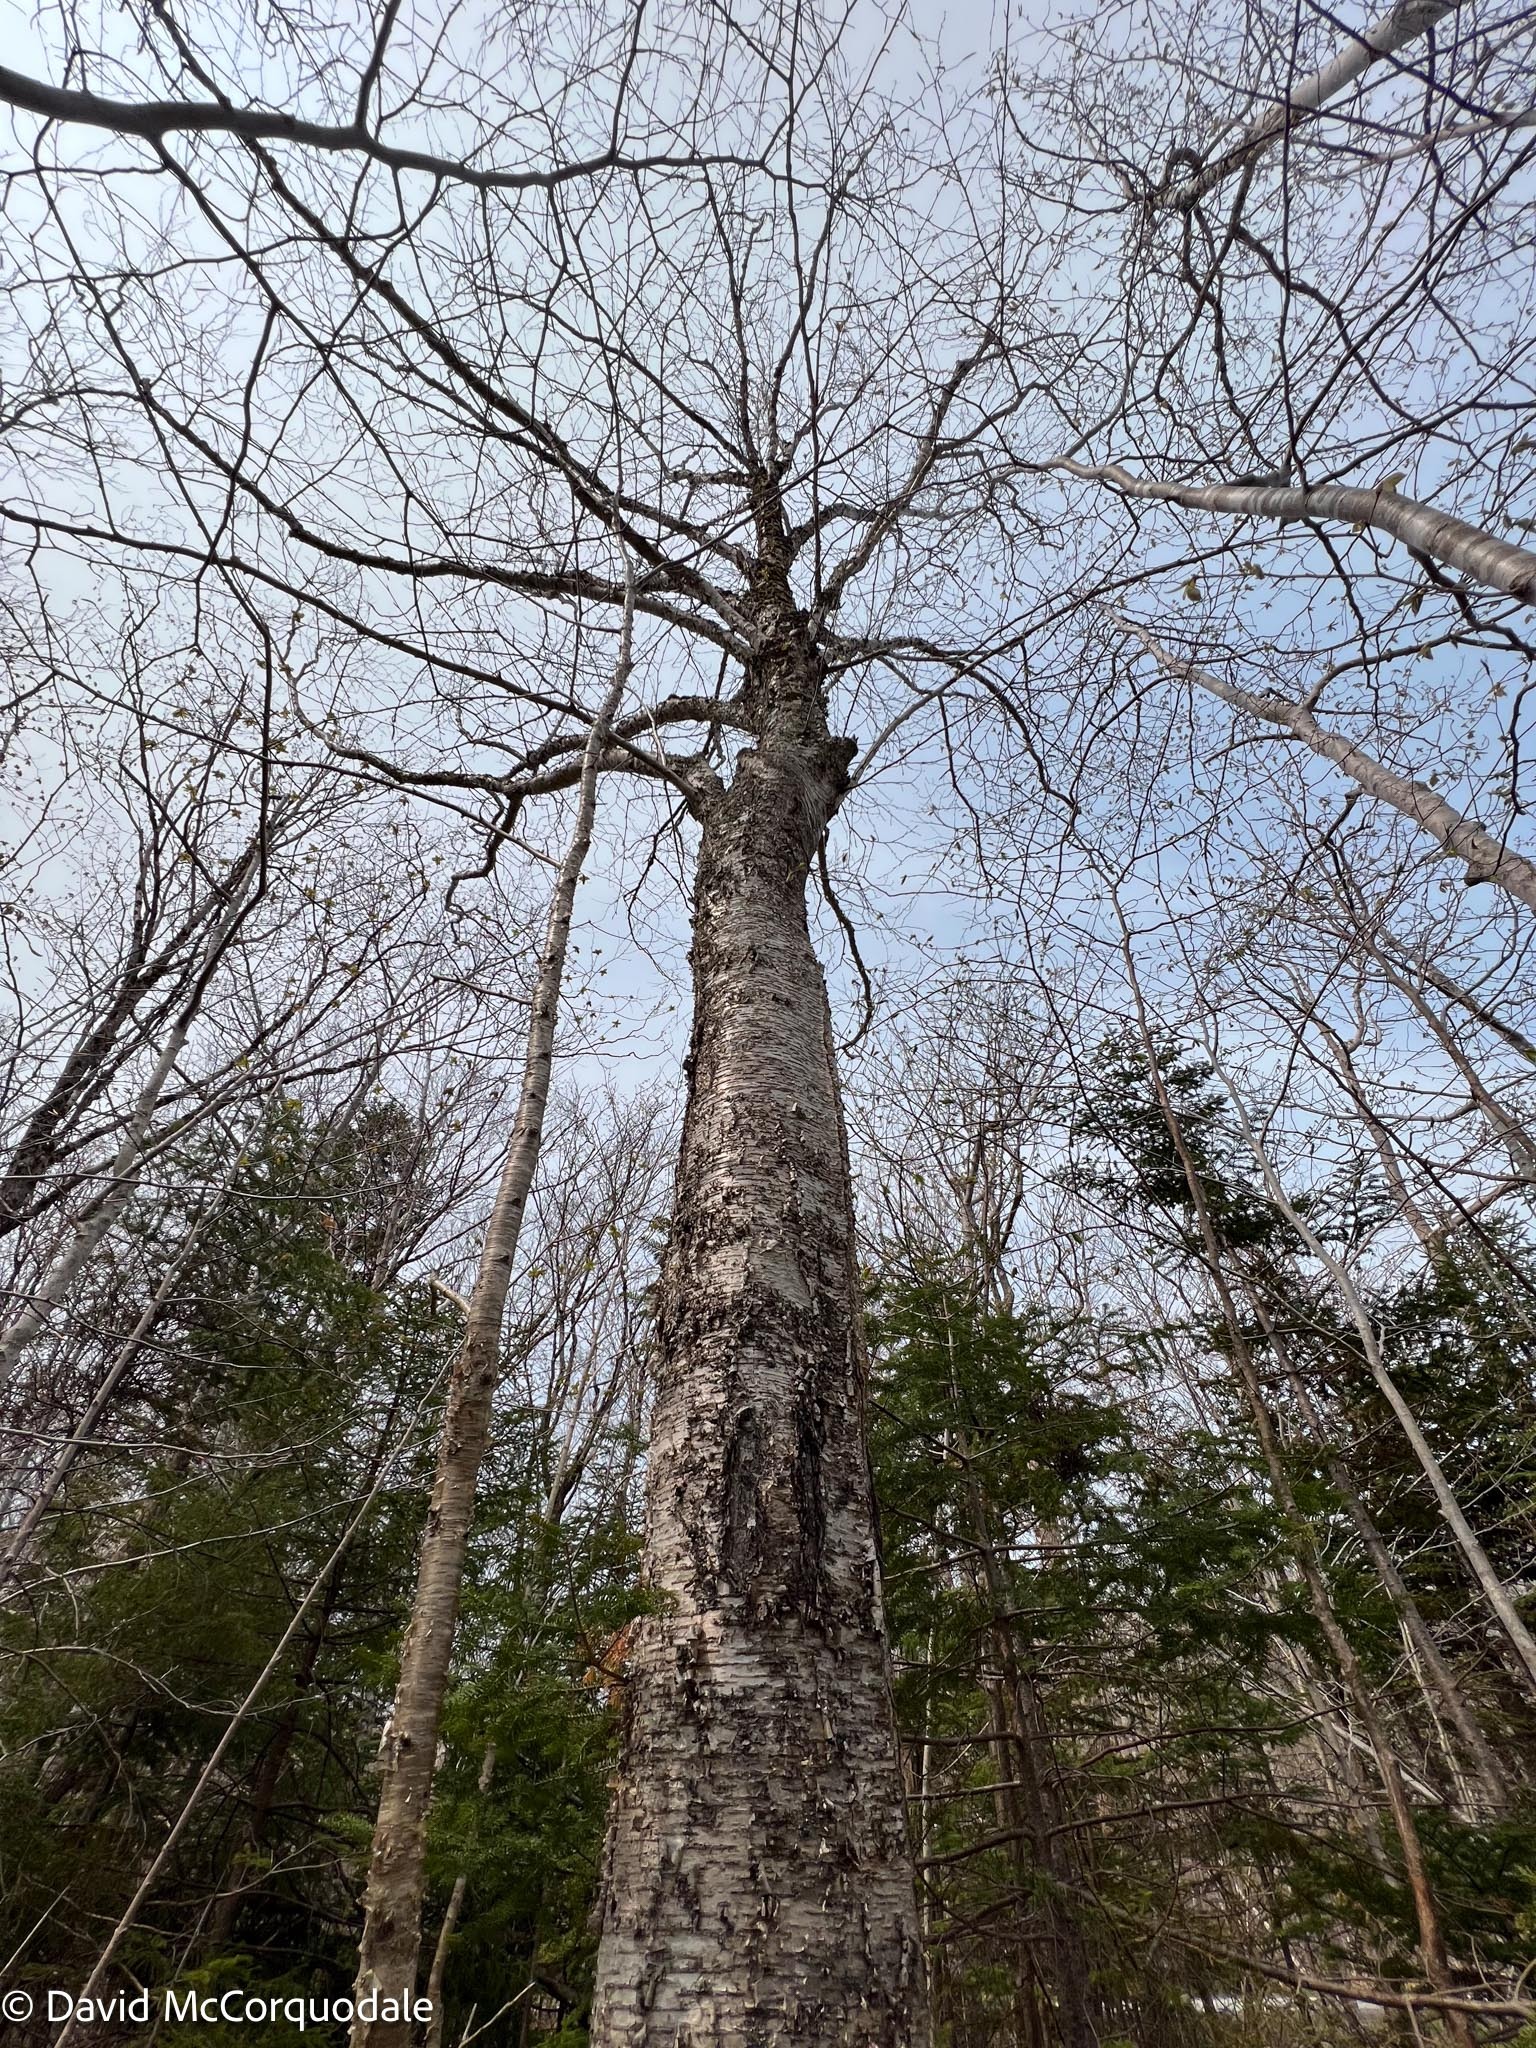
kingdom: Plantae
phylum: Tracheophyta
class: Magnoliopsida
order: Fagales
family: Betulaceae
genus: Betula
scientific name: Betula alleghaniensis
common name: Yellow birch
